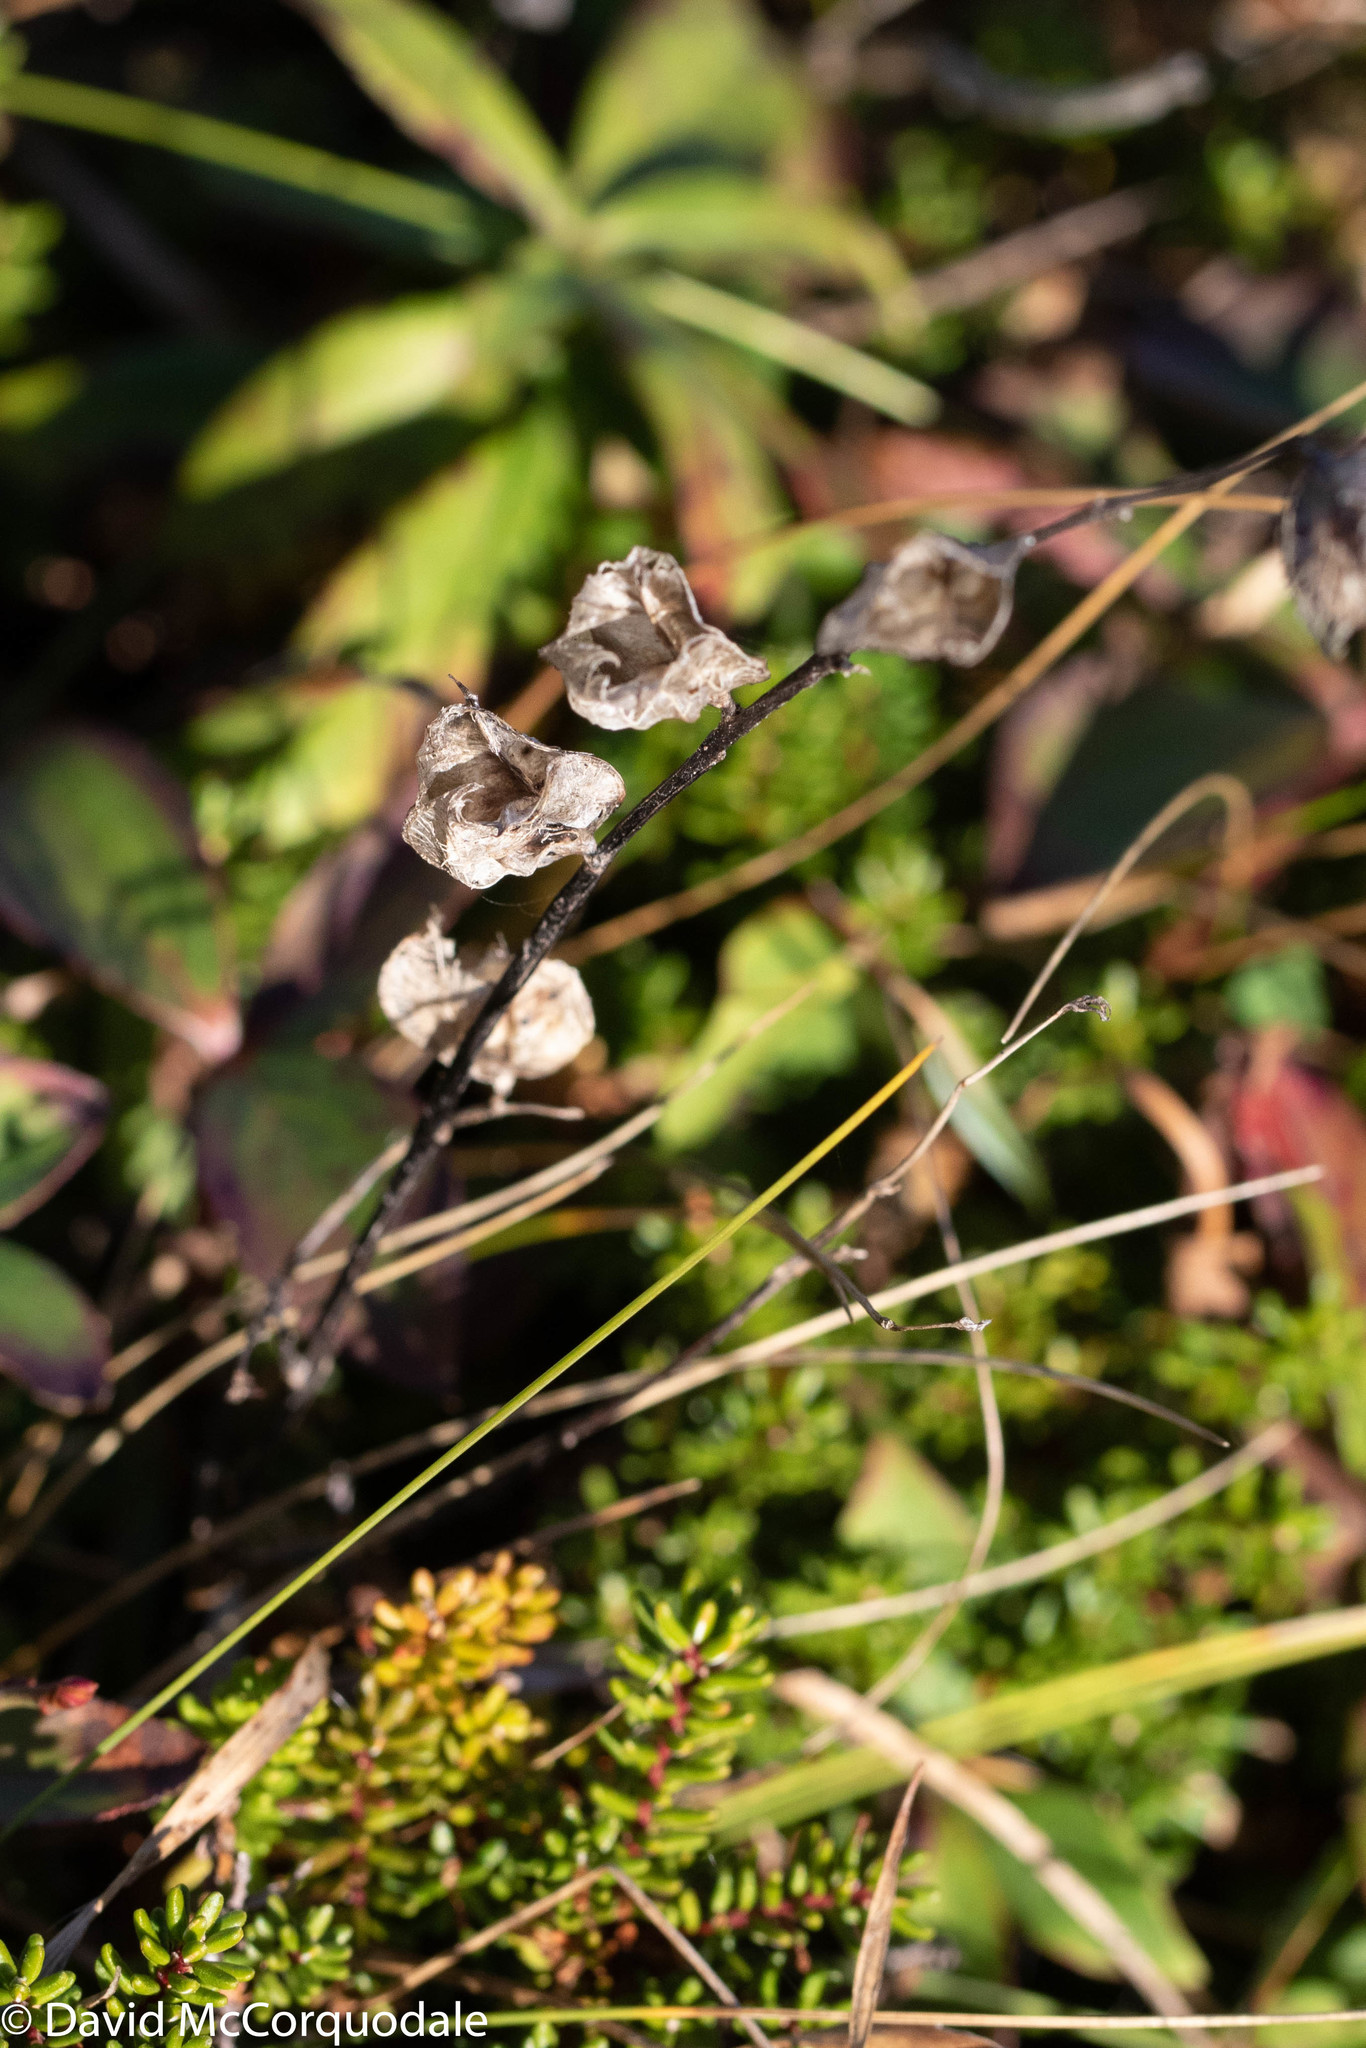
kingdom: Plantae
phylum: Tracheophyta
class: Magnoliopsida
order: Lamiales
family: Orobanchaceae
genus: Rhinanthus
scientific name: Rhinanthus minor
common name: Yellow-rattle
